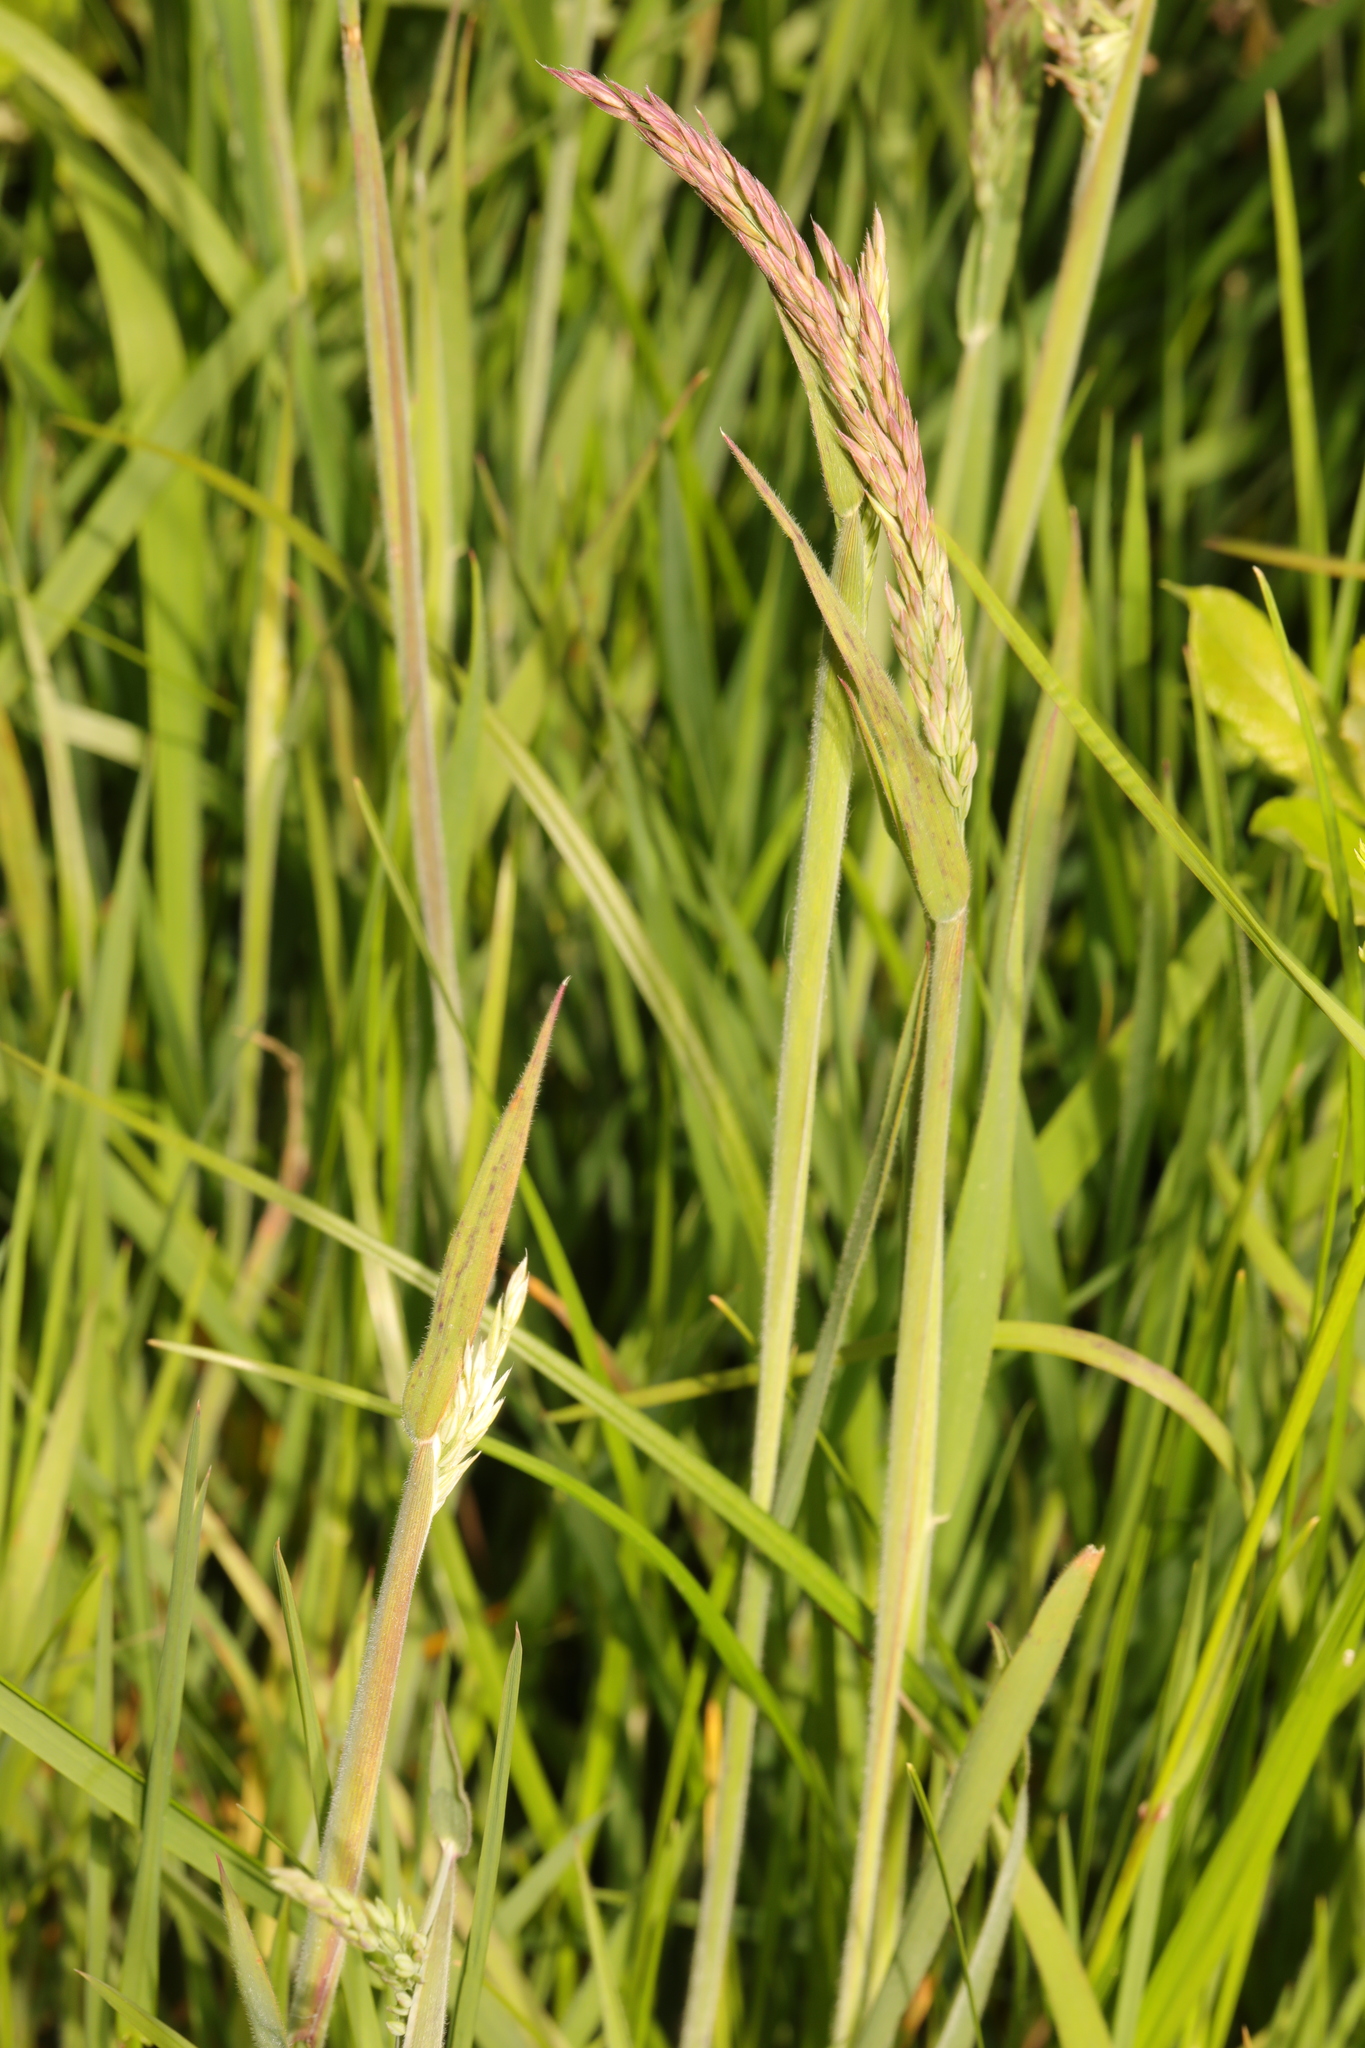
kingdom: Plantae
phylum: Tracheophyta
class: Liliopsida
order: Poales
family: Poaceae
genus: Holcus
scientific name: Holcus lanatus
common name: Yorkshire-fog
